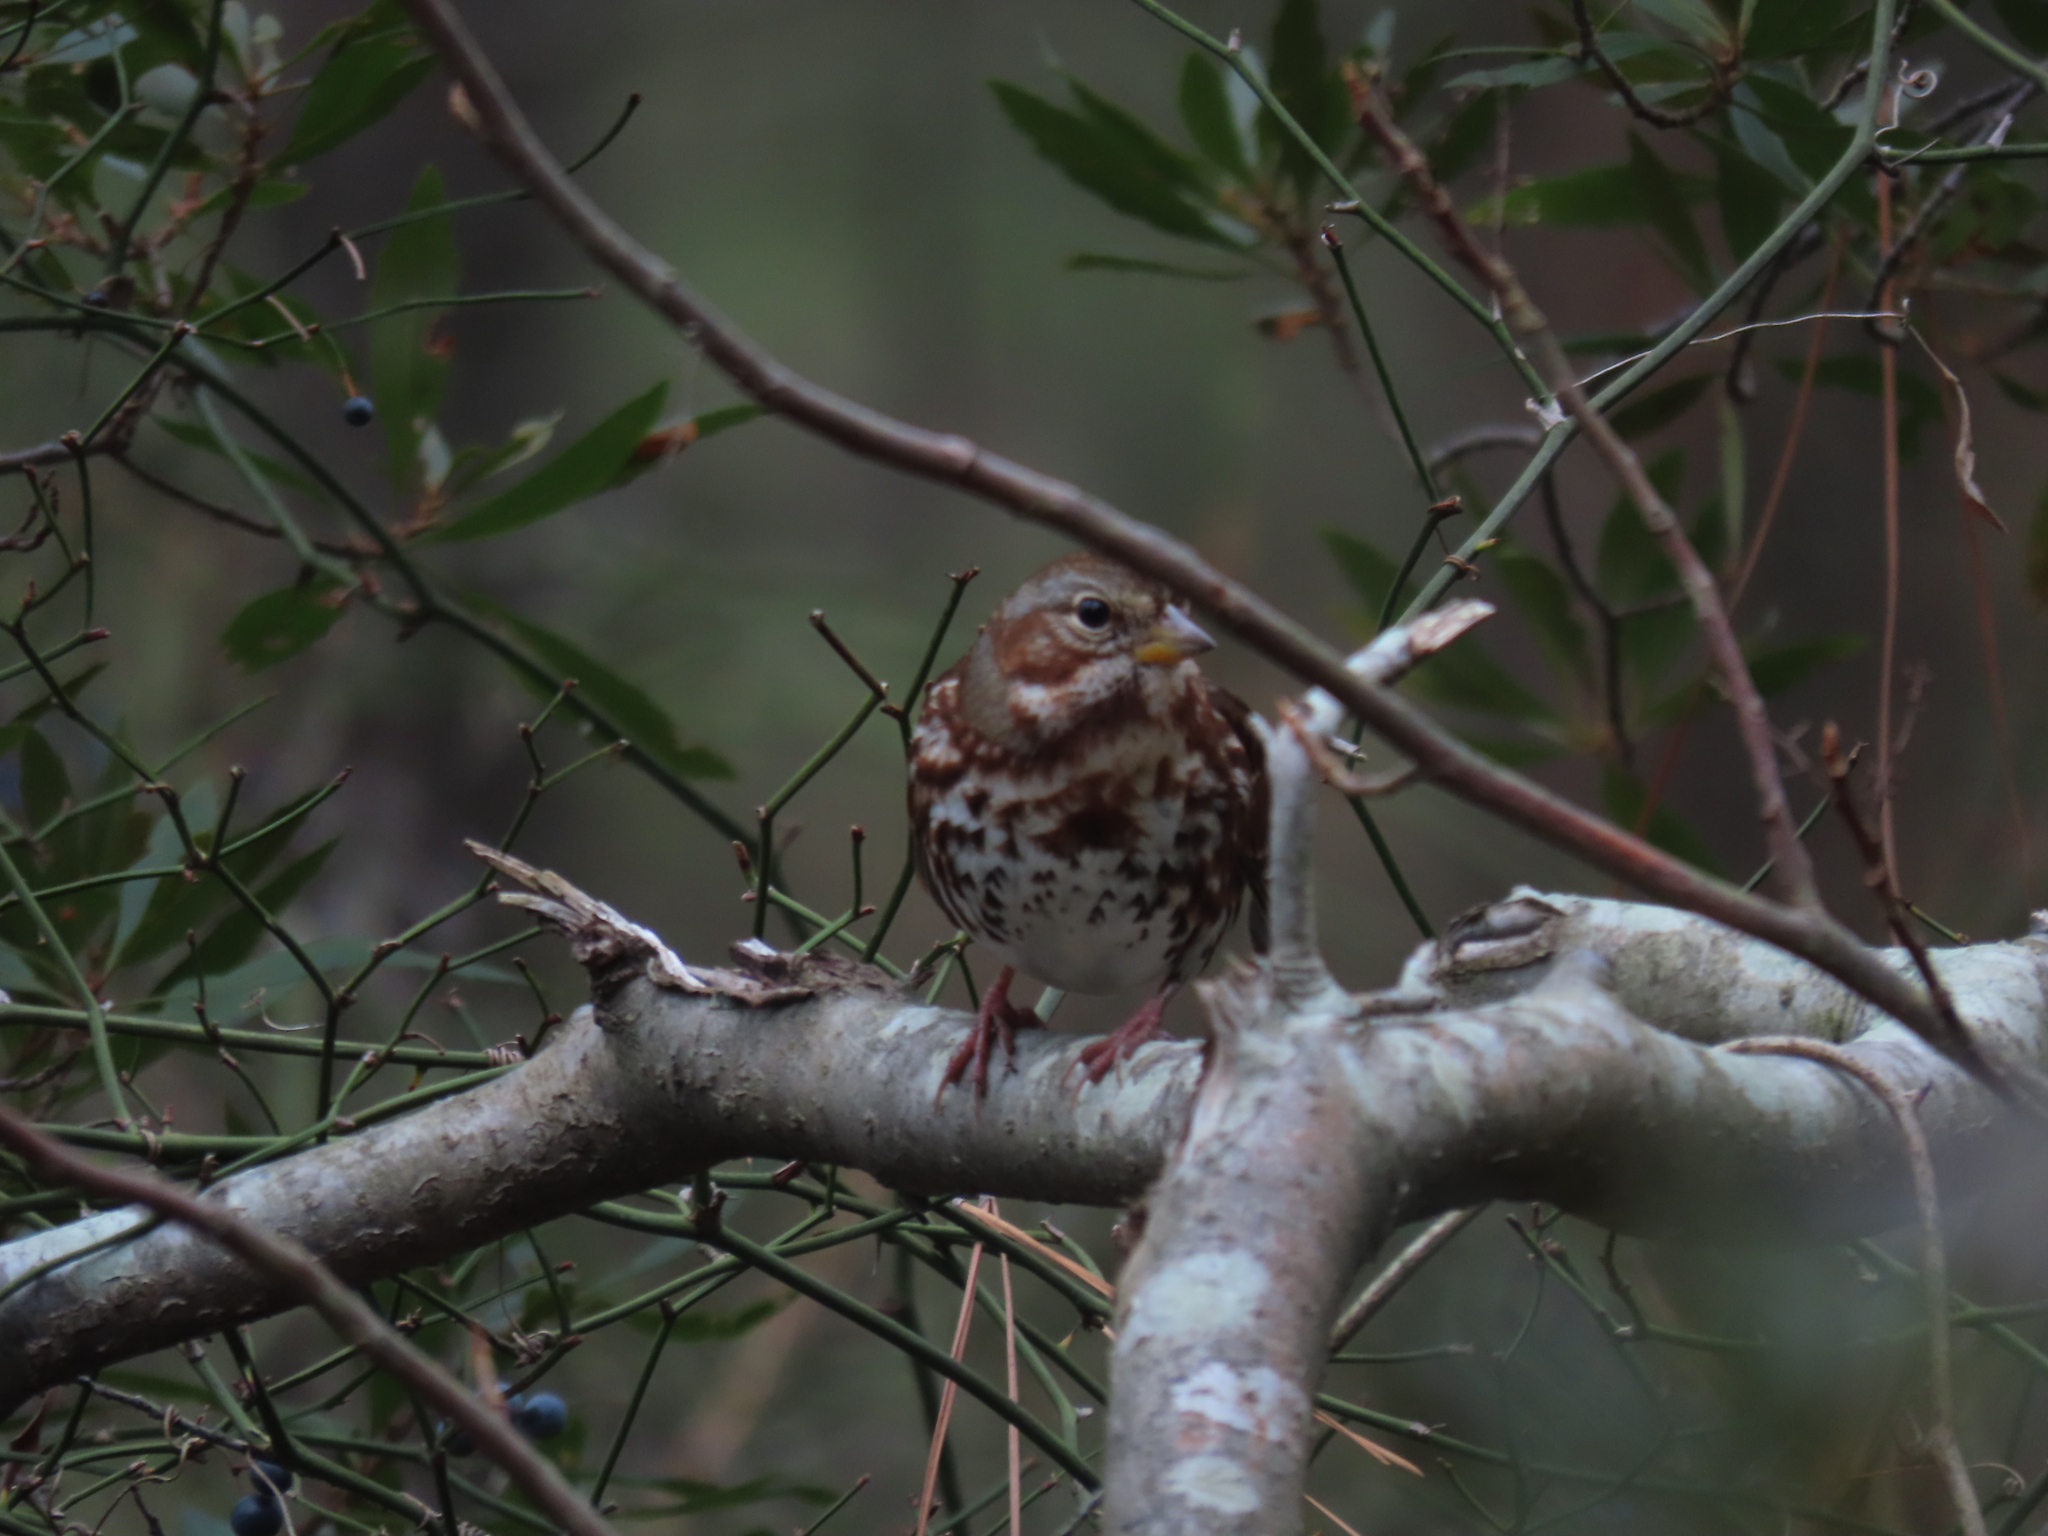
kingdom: Animalia
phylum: Chordata
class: Aves
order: Passeriformes
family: Passerellidae
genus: Passerella
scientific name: Passerella iliaca
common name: Fox sparrow
